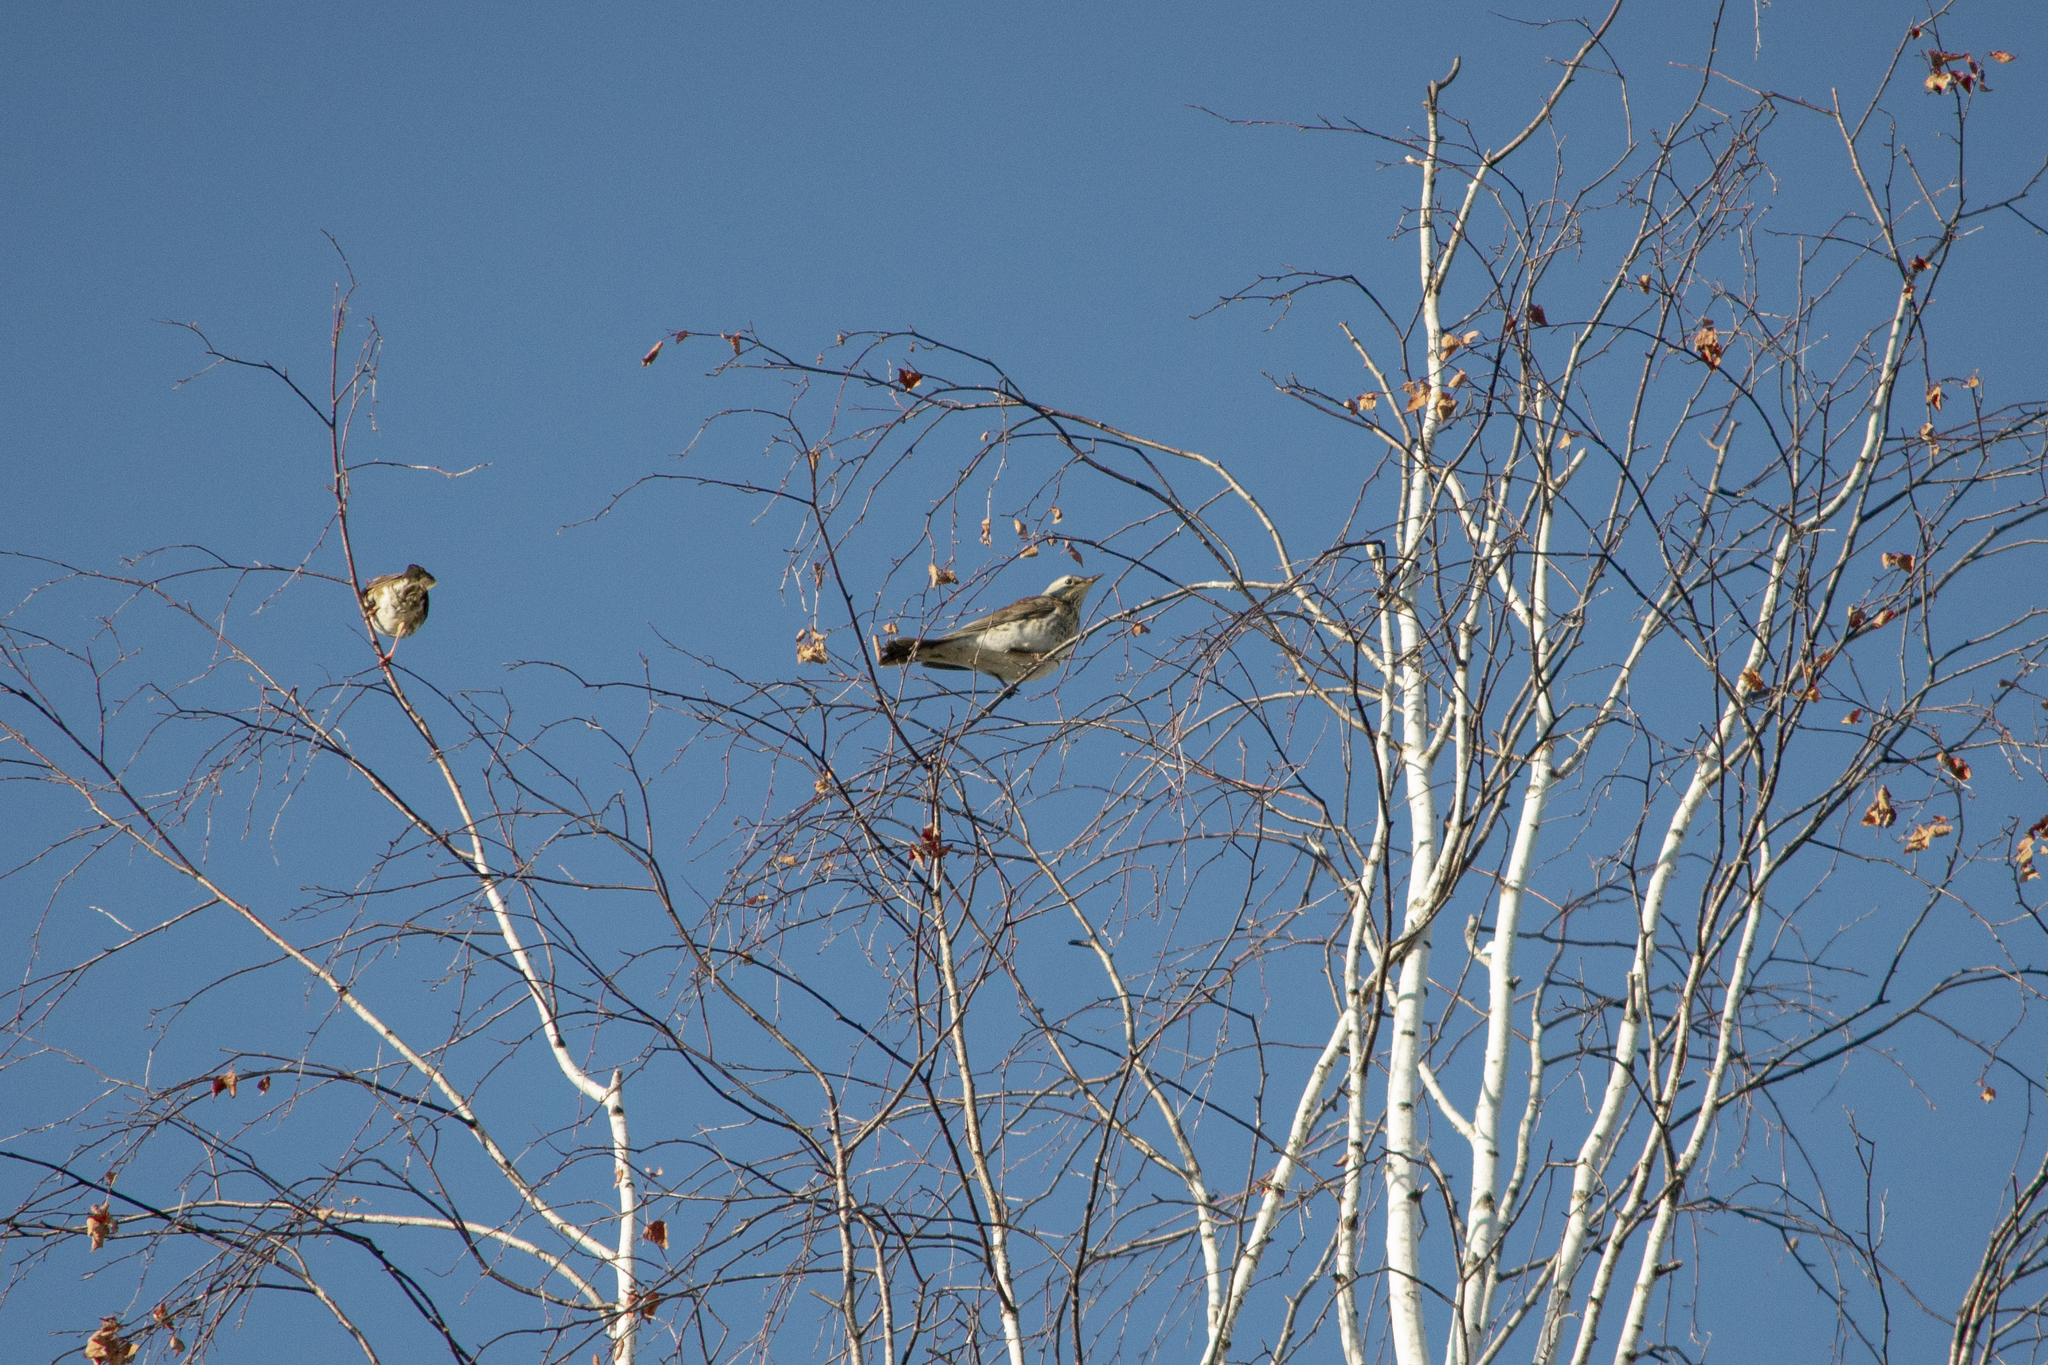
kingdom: Animalia
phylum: Chordata
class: Aves
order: Passeriformes
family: Turdidae
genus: Turdus
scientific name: Turdus pilaris
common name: Fieldfare
